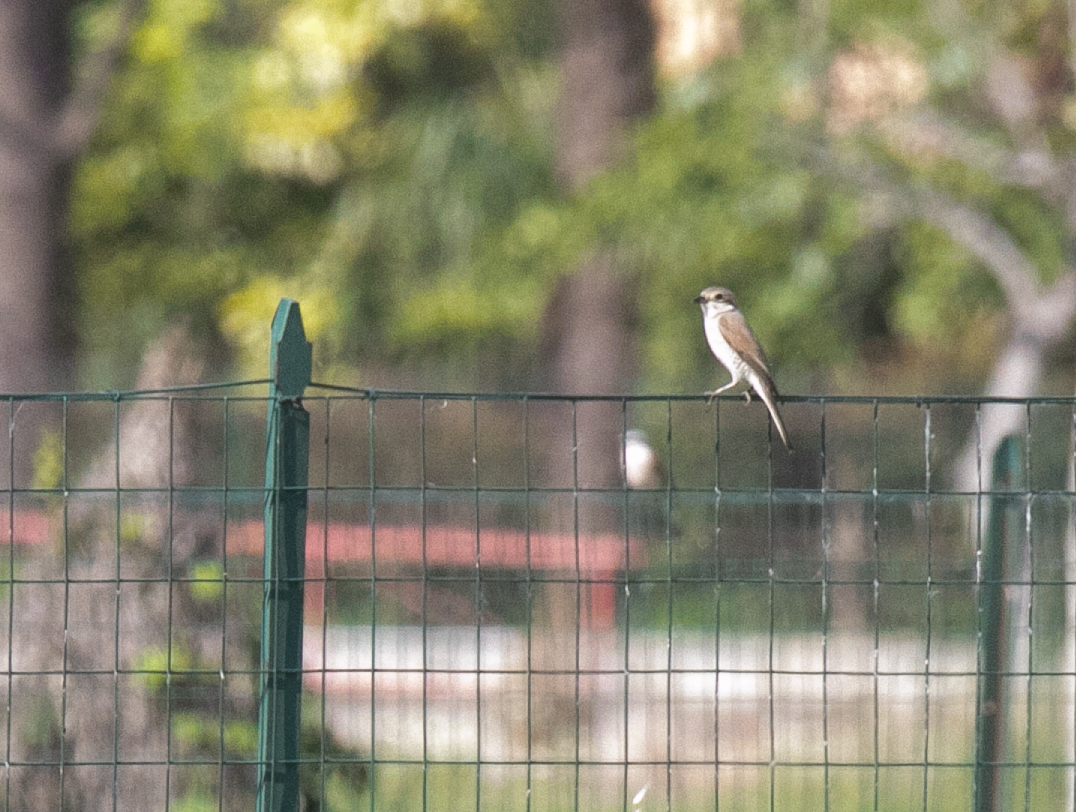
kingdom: Animalia
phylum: Chordata
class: Aves
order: Passeriformes
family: Laniidae
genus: Lanius
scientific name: Lanius collurio
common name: Red-backed shrike
